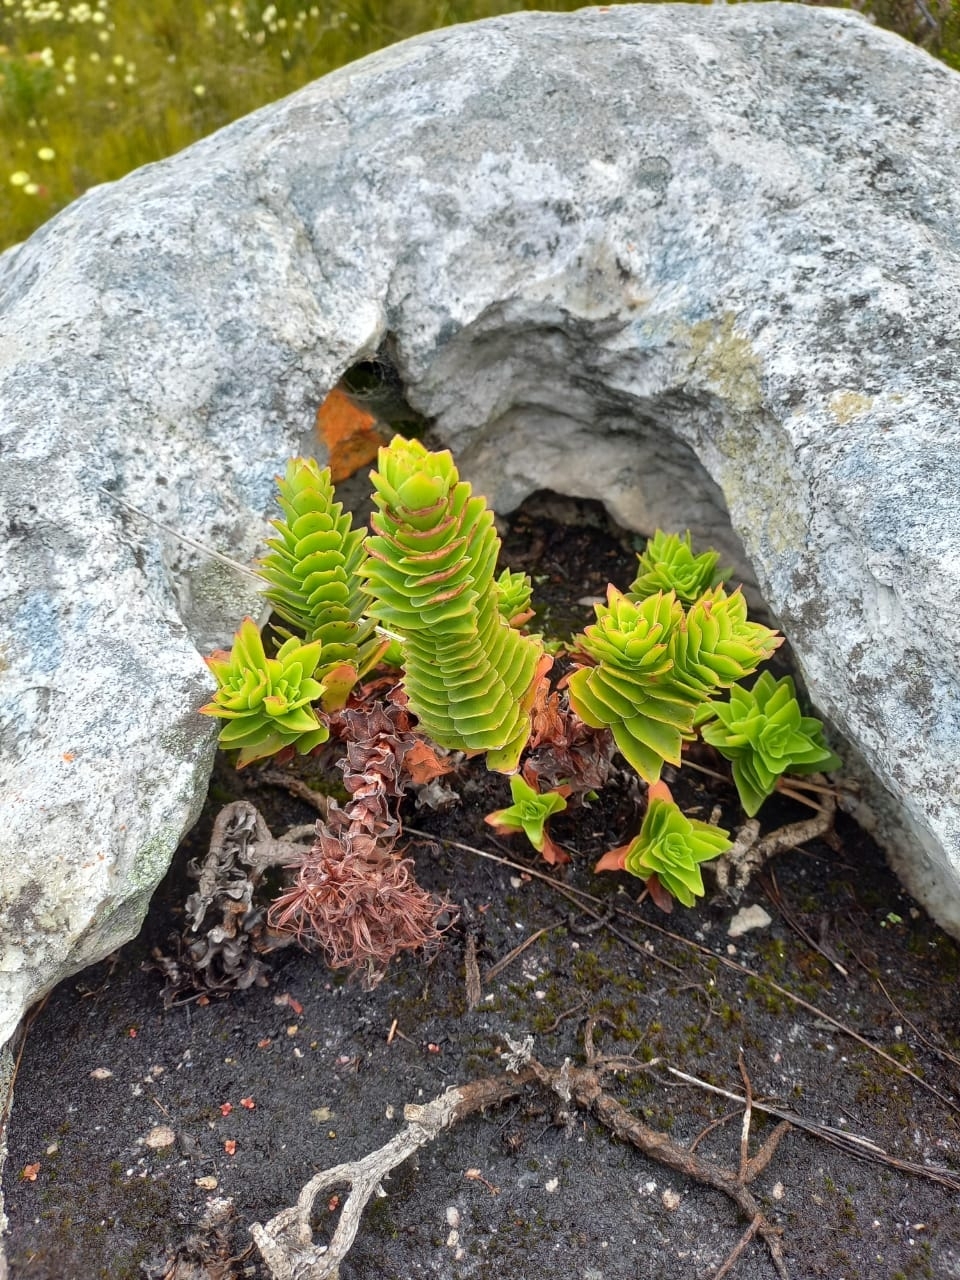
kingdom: Plantae
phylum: Tracheophyta
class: Magnoliopsida
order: Saxifragales
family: Crassulaceae
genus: Crassula
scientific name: Crassula coccinea
